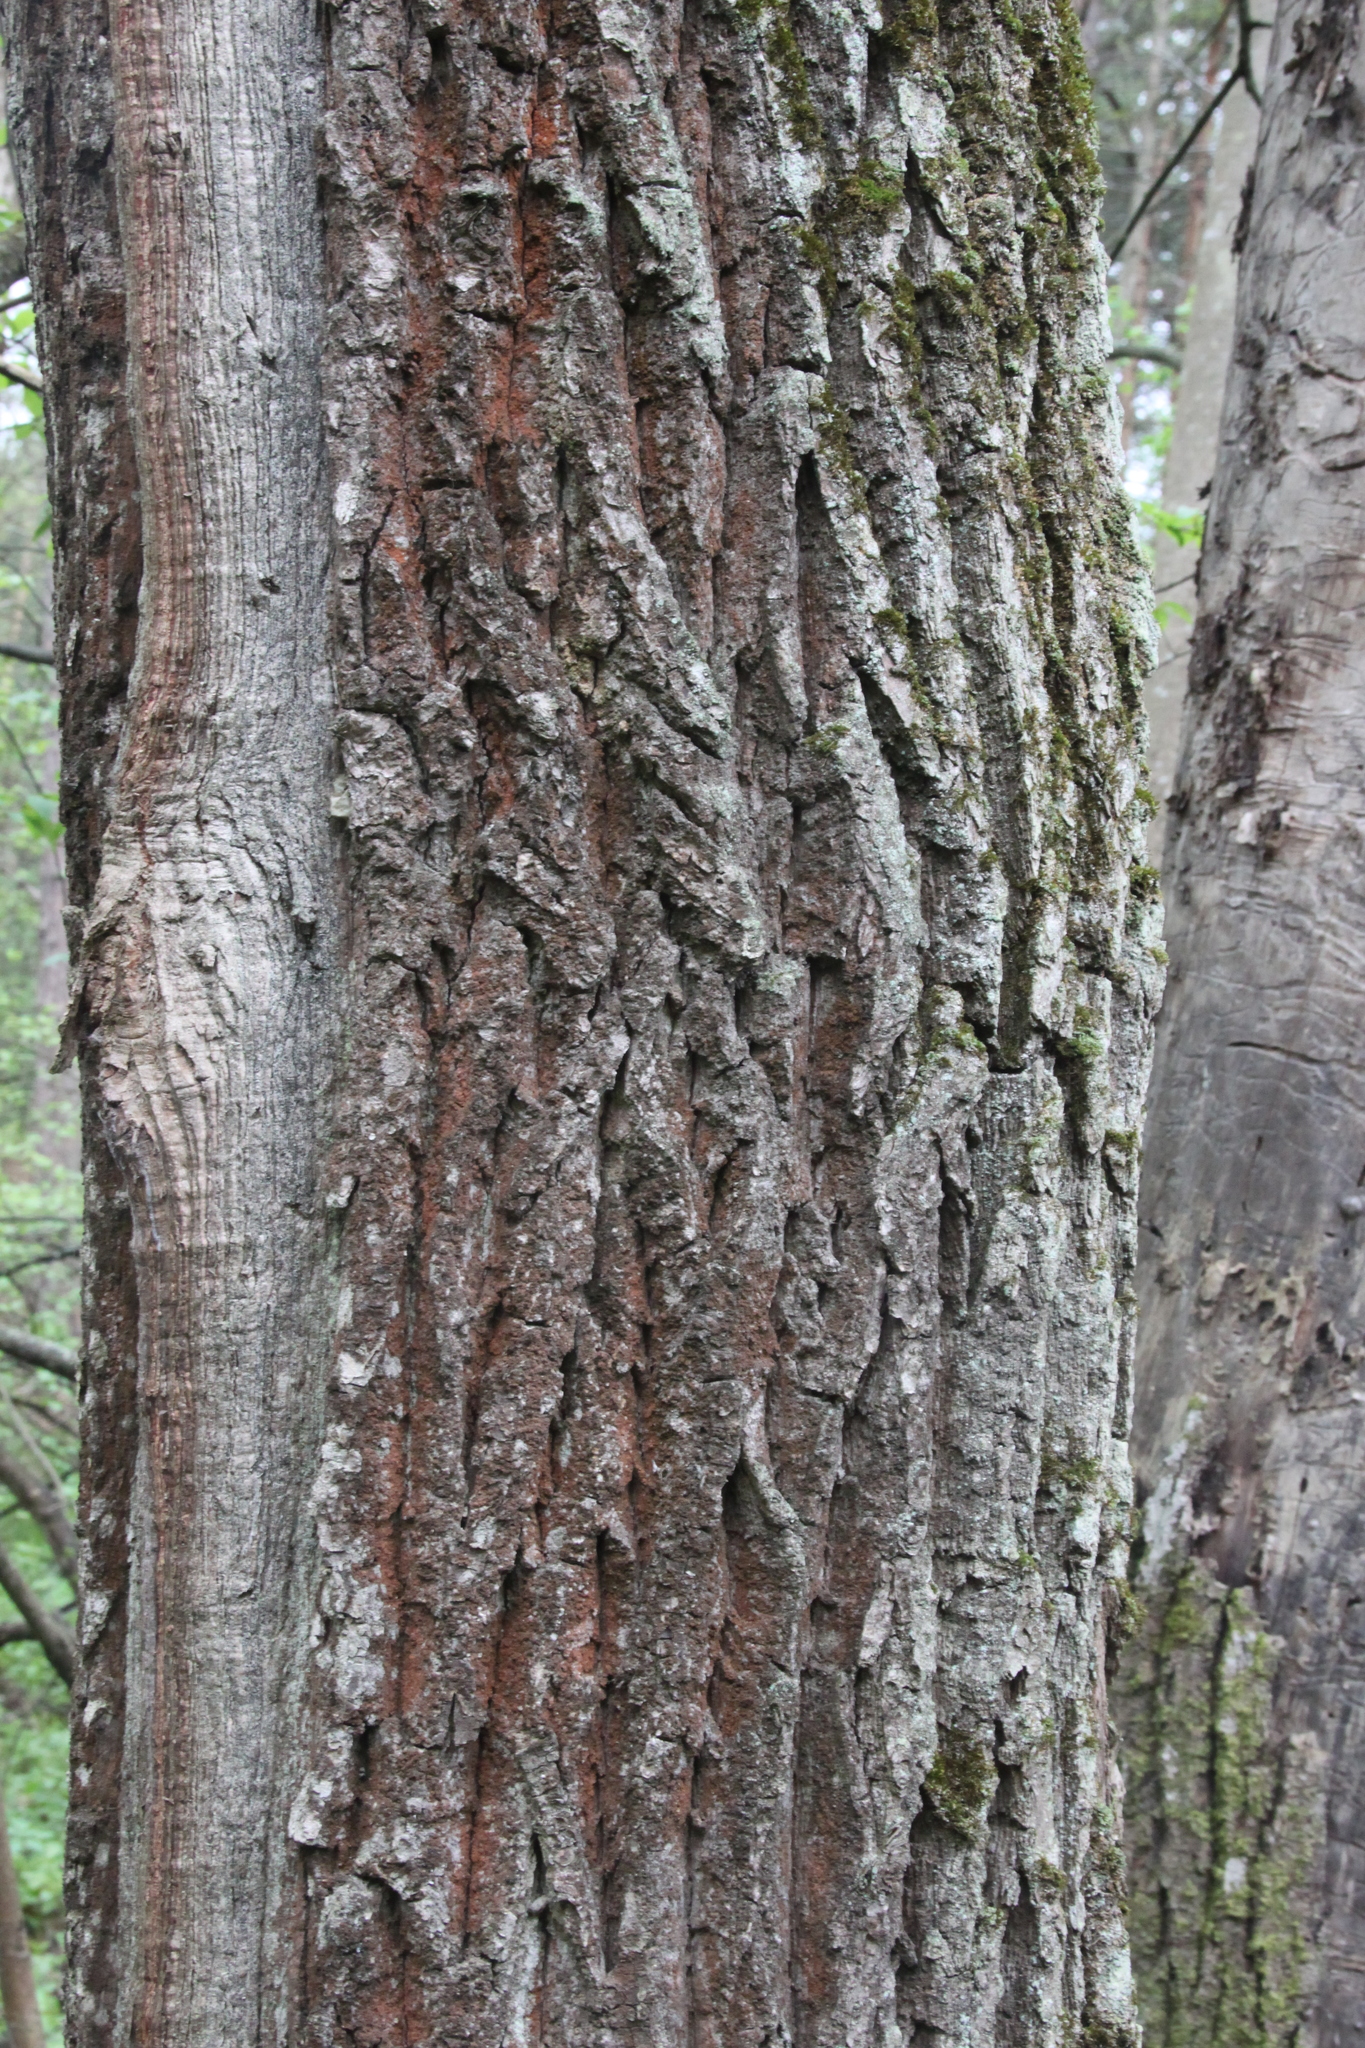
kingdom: Plantae
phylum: Tracheophyta
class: Magnoliopsida
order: Fagales
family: Fagaceae
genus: Quercus
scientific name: Quercus robur
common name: Pedunculate oak
